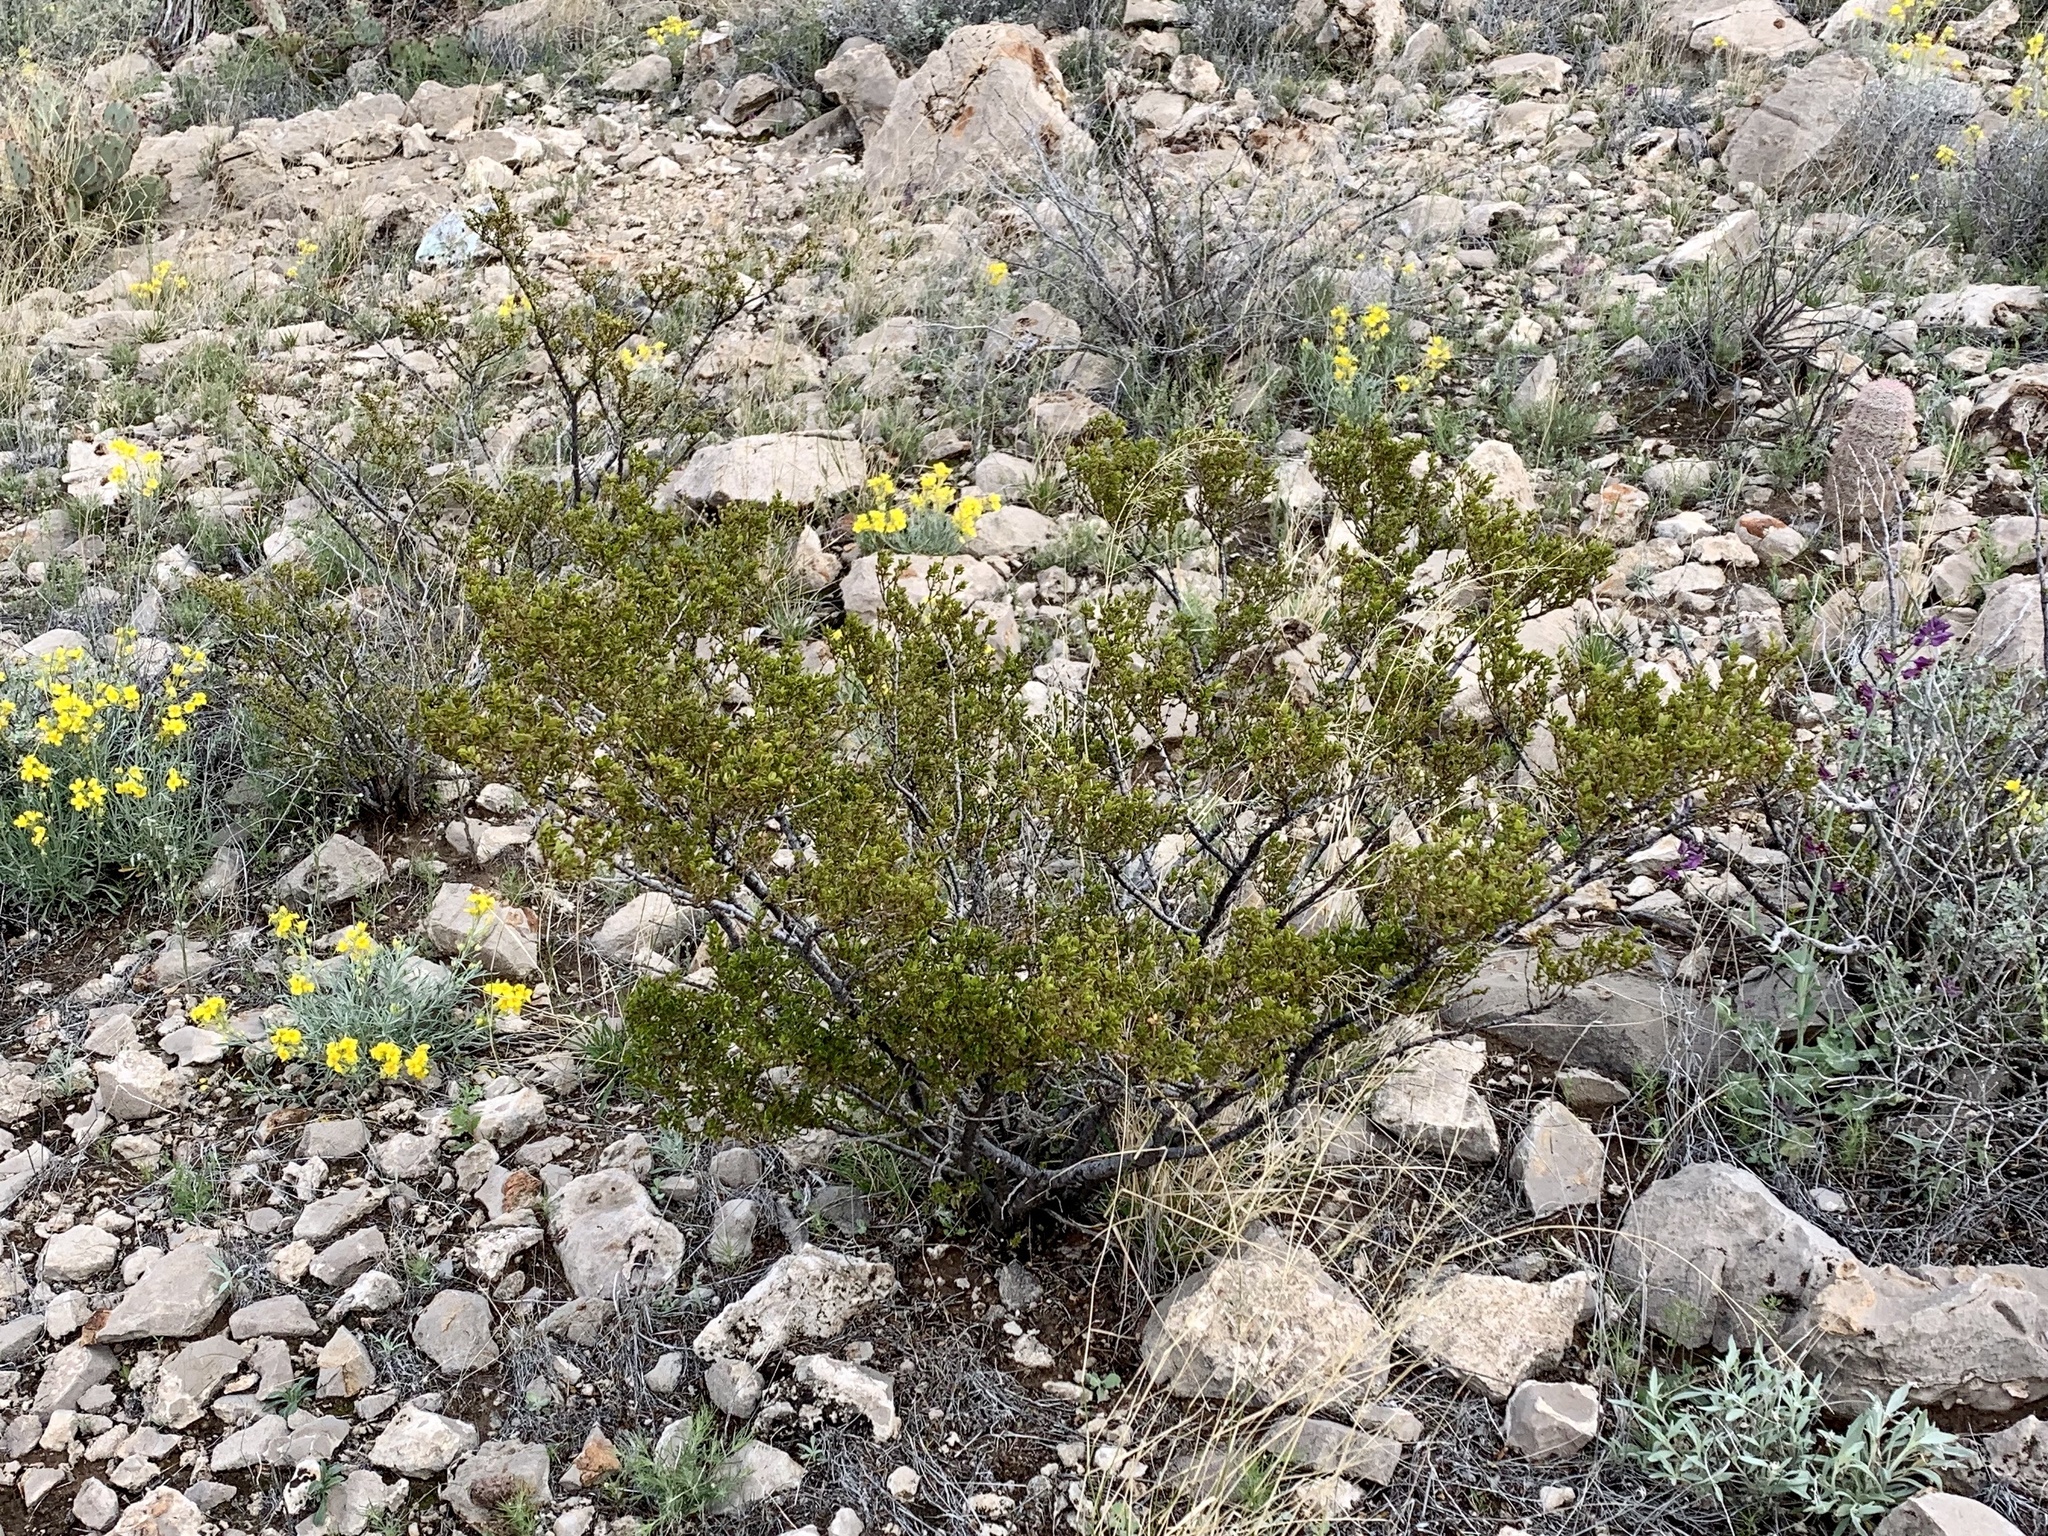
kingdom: Plantae
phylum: Tracheophyta
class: Magnoliopsida
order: Zygophyllales
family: Zygophyllaceae
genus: Larrea
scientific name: Larrea tridentata
